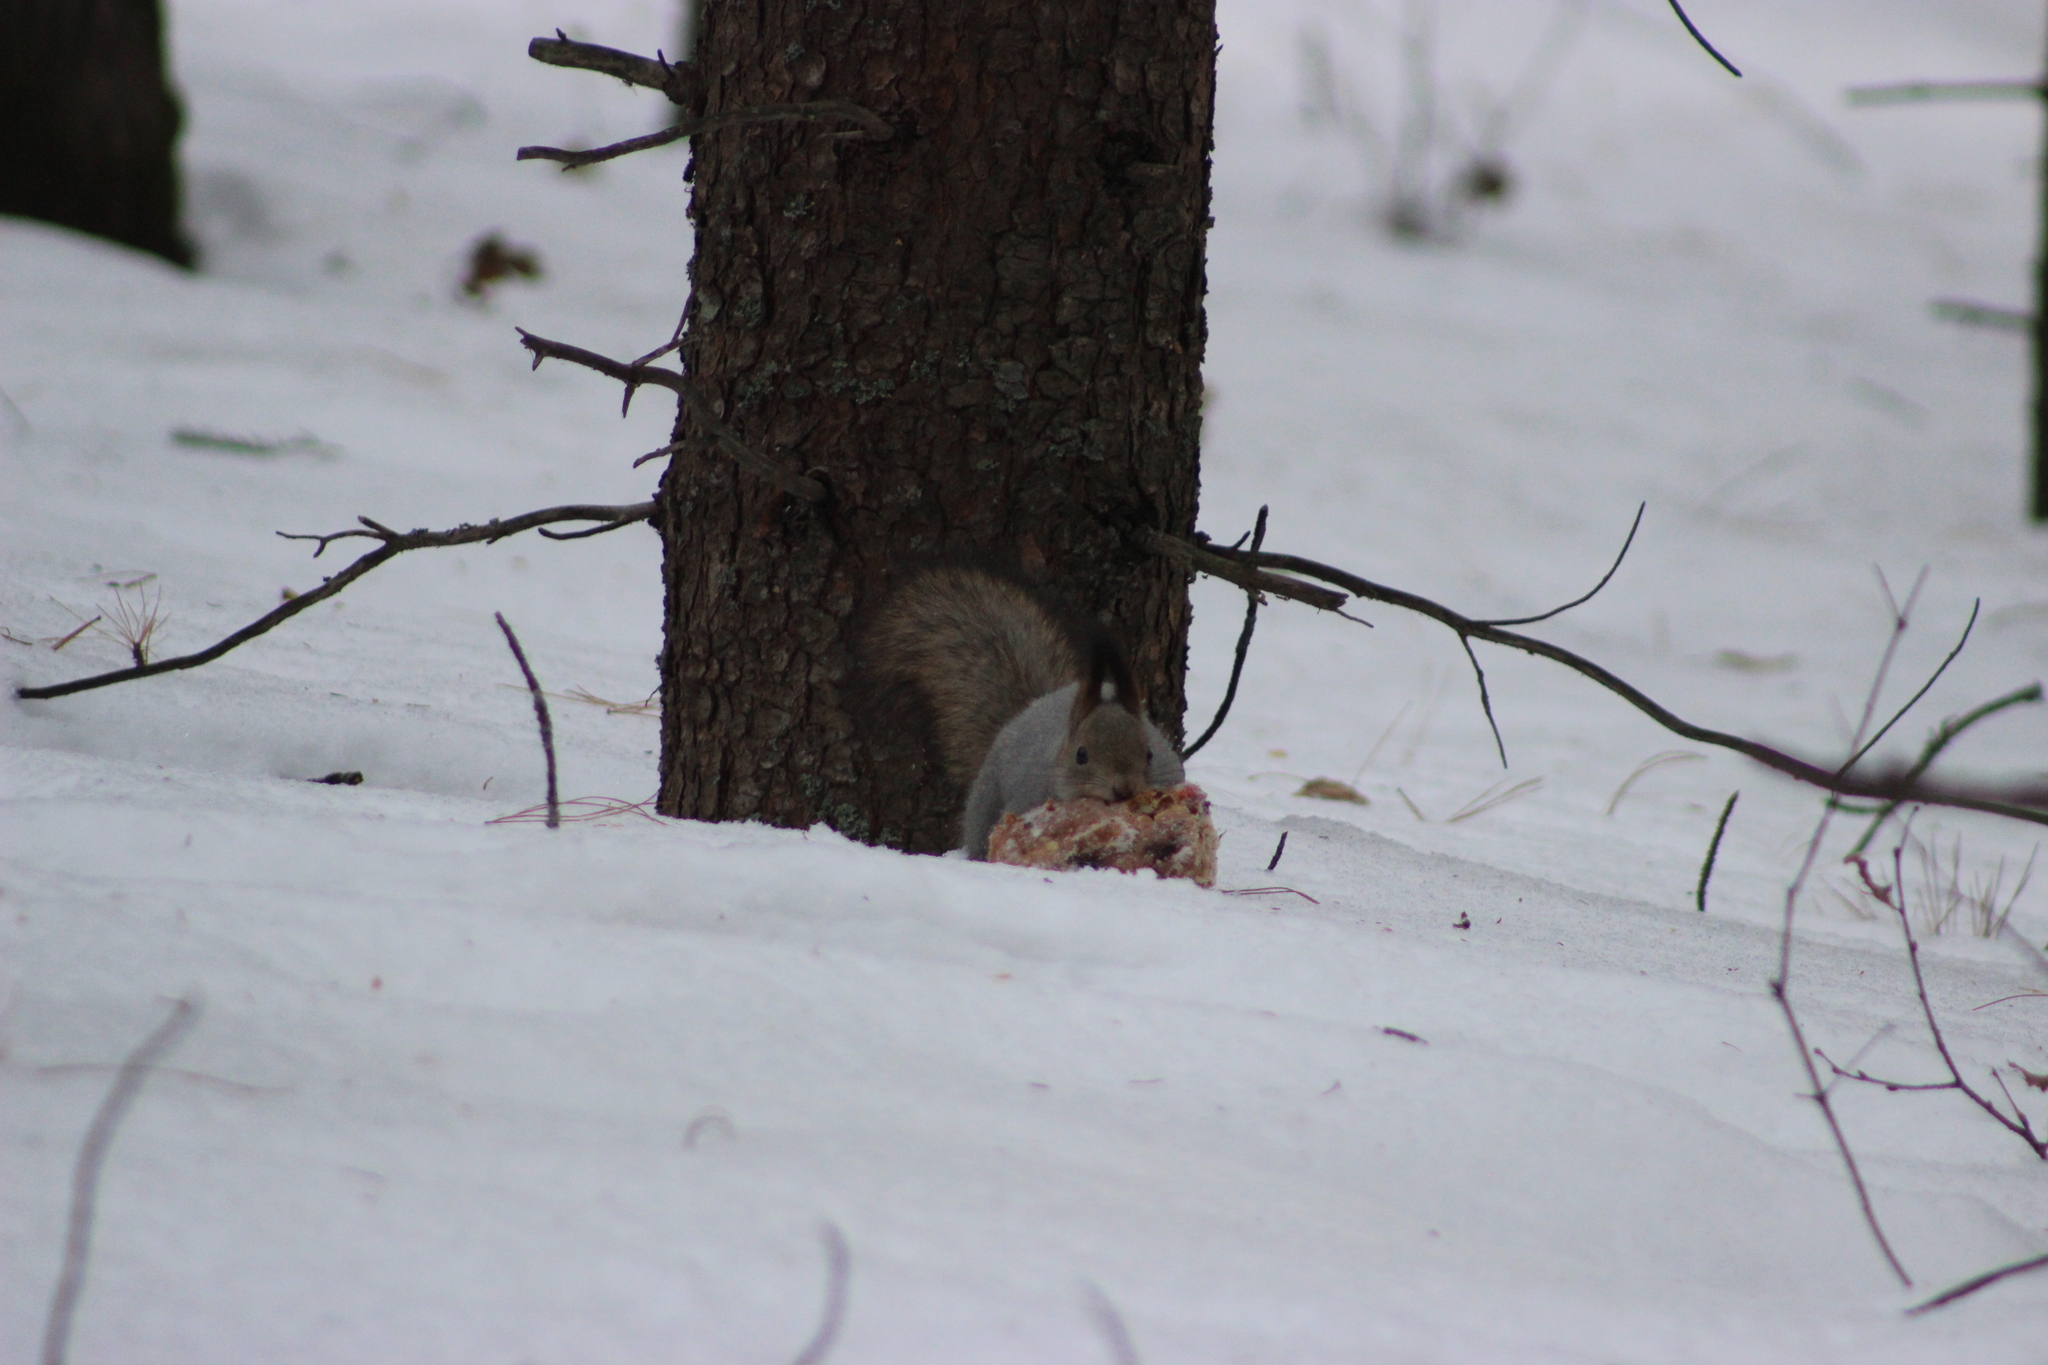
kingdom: Animalia
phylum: Chordata
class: Mammalia
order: Rodentia
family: Sciuridae
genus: Sciurus
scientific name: Sciurus vulgaris
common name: Eurasian red squirrel
